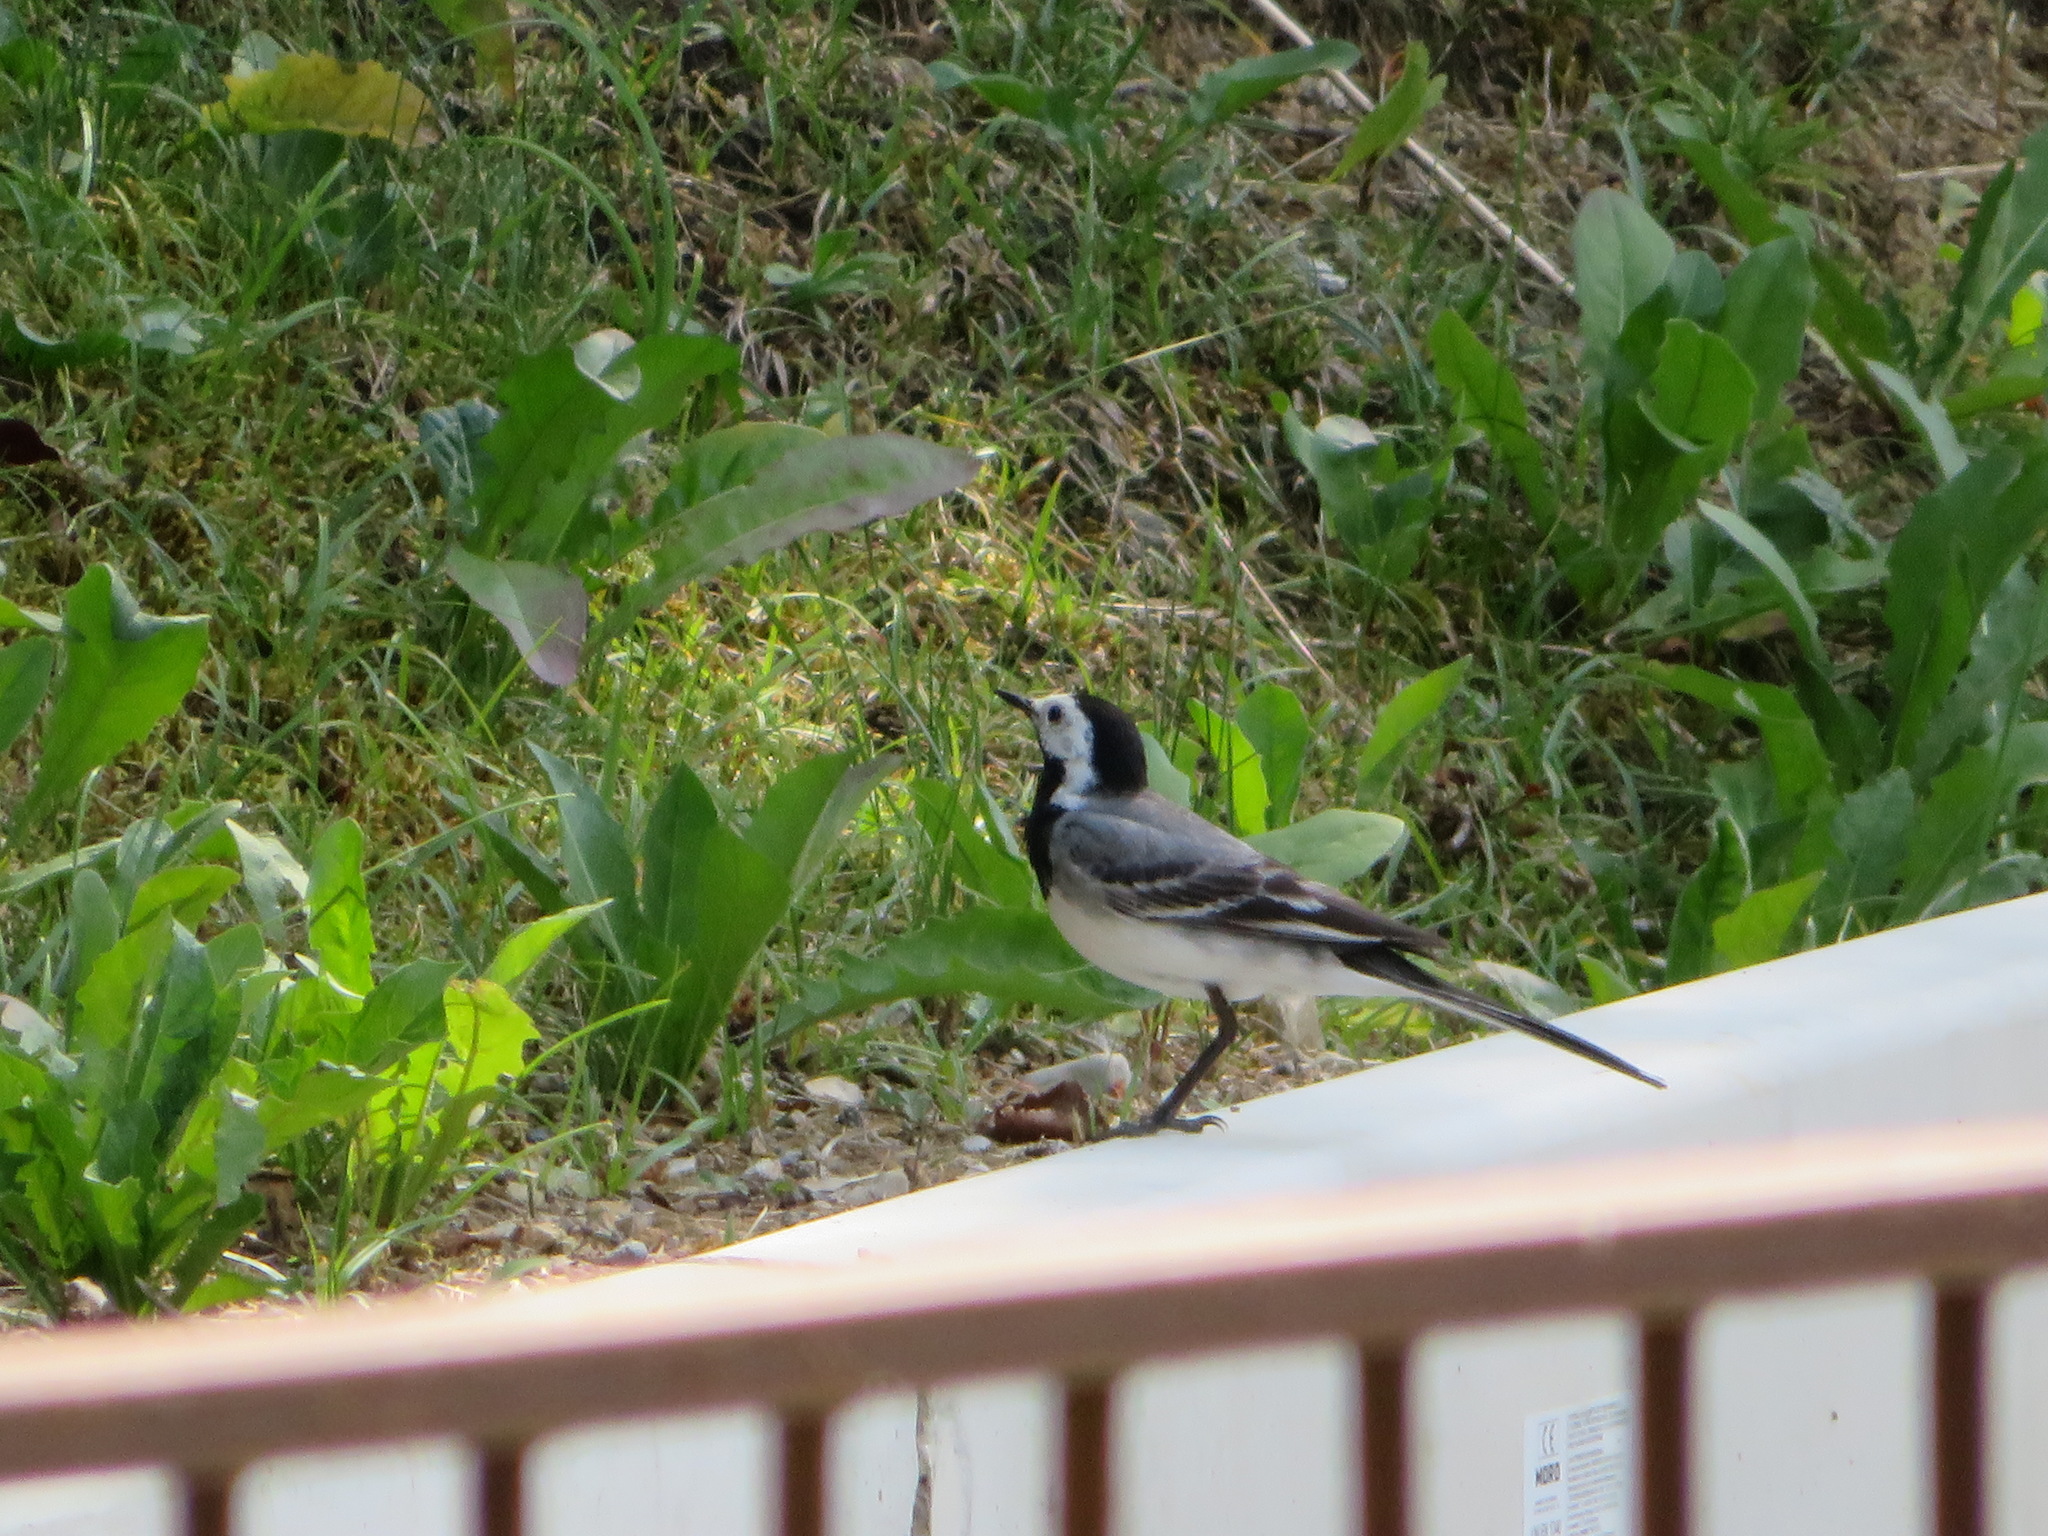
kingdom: Animalia
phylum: Chordata
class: Aves
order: Passeriformes
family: Motacillidae
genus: Motacilla
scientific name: Motacilla alba
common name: White wagtail
